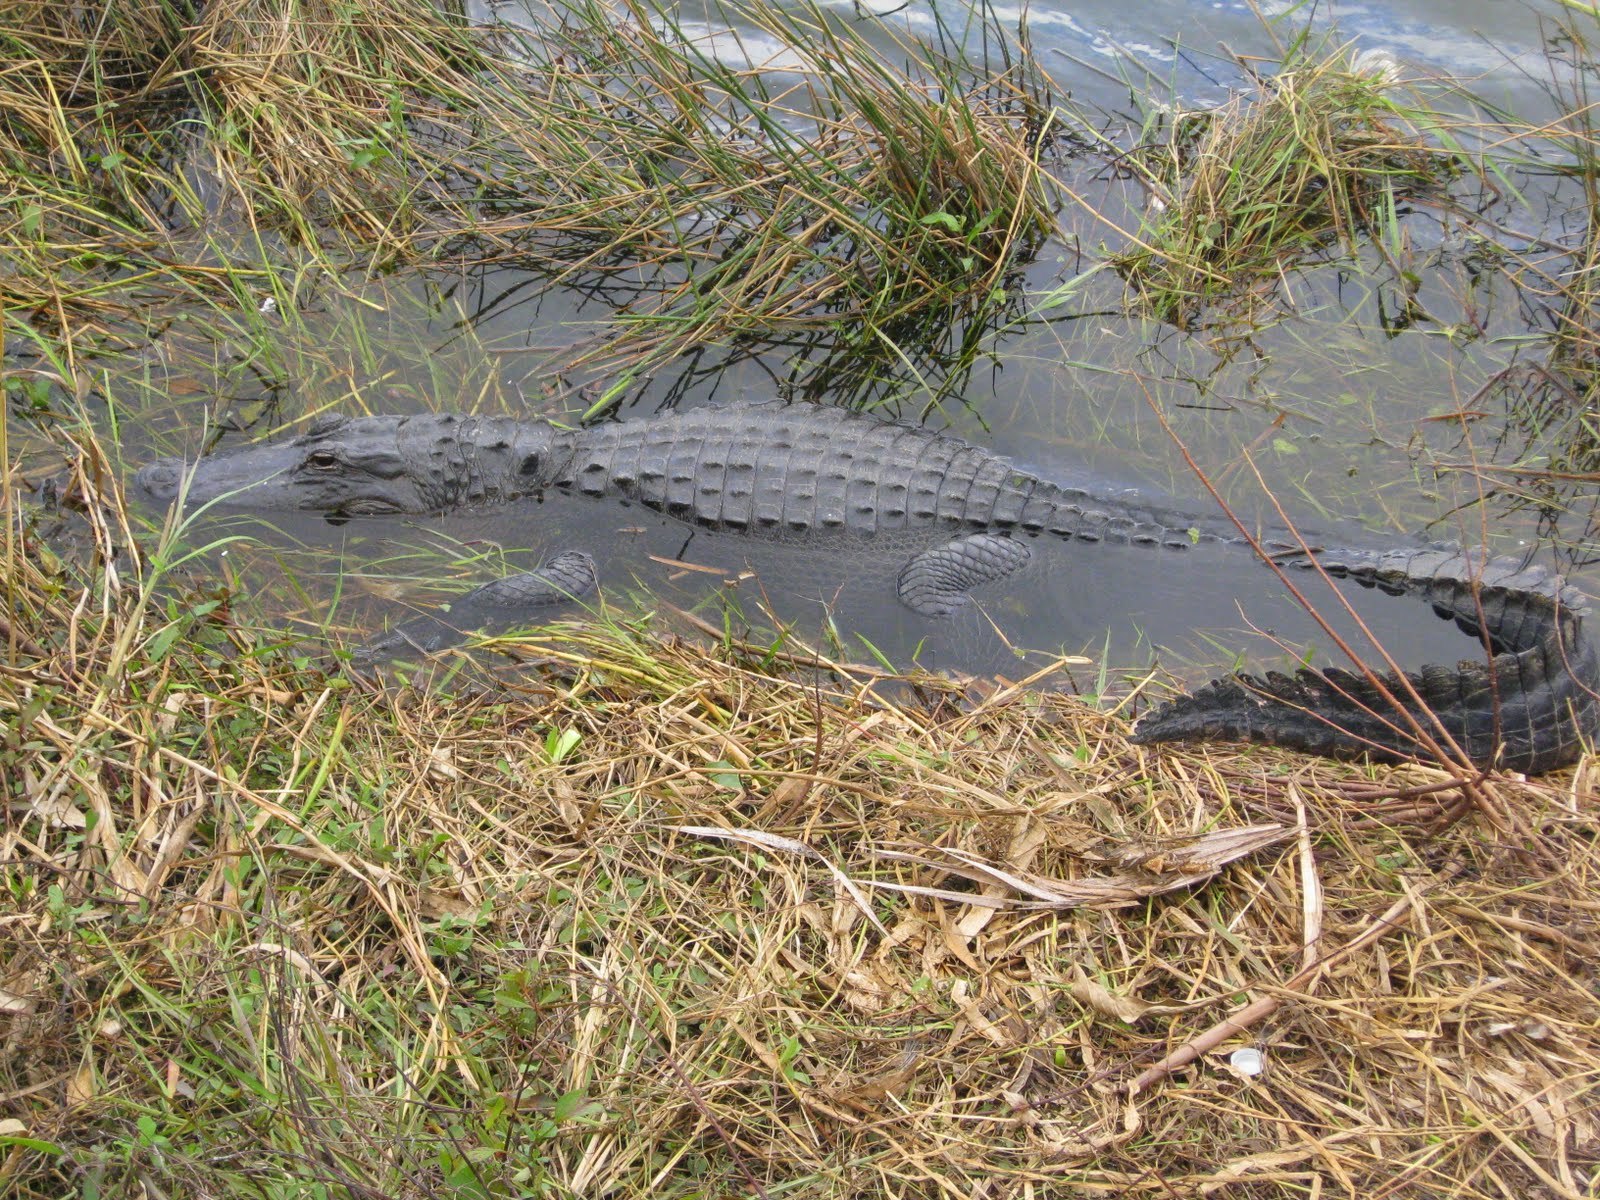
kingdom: Animalia
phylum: Chordata
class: Crocodylia
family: Alligatoridae
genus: Alligator
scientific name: Alligator mississippiensis
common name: American alligator
